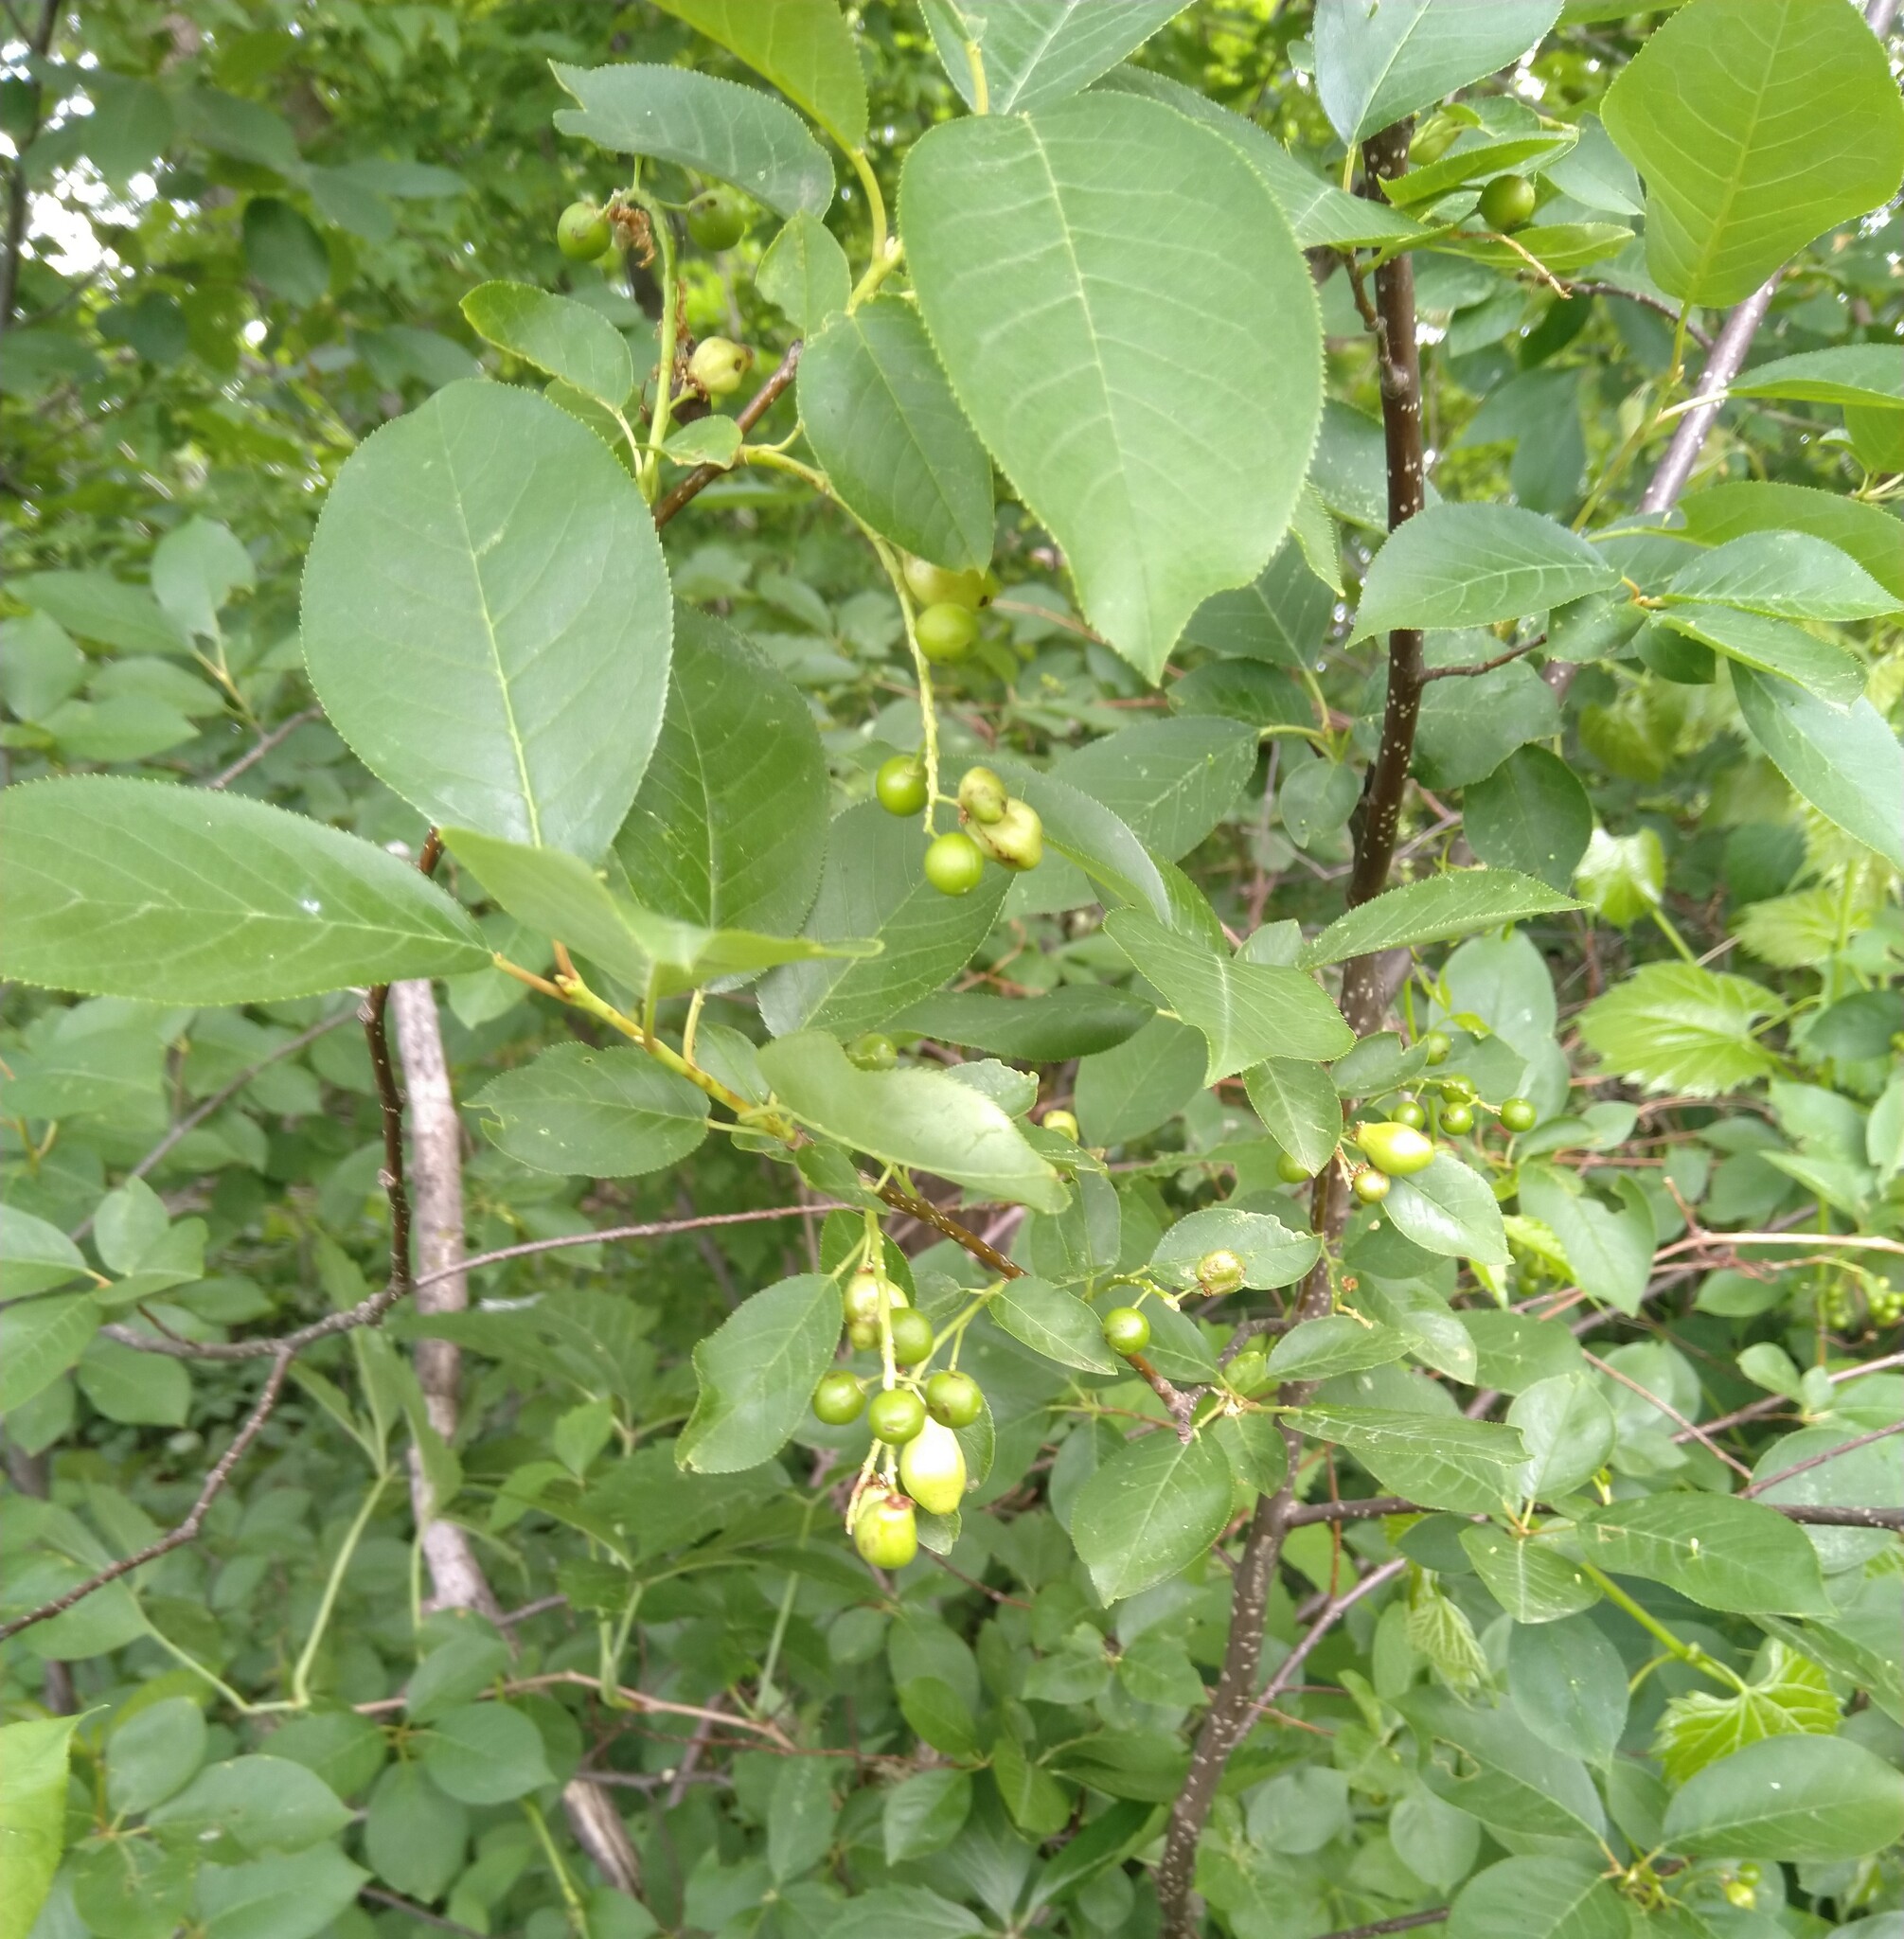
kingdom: Animalia
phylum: Arthropoda
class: Insecta
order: Diptera
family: Cecidomyiidae
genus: Contarinia
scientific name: Contarinia virginianiae
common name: Chokecherry midge
